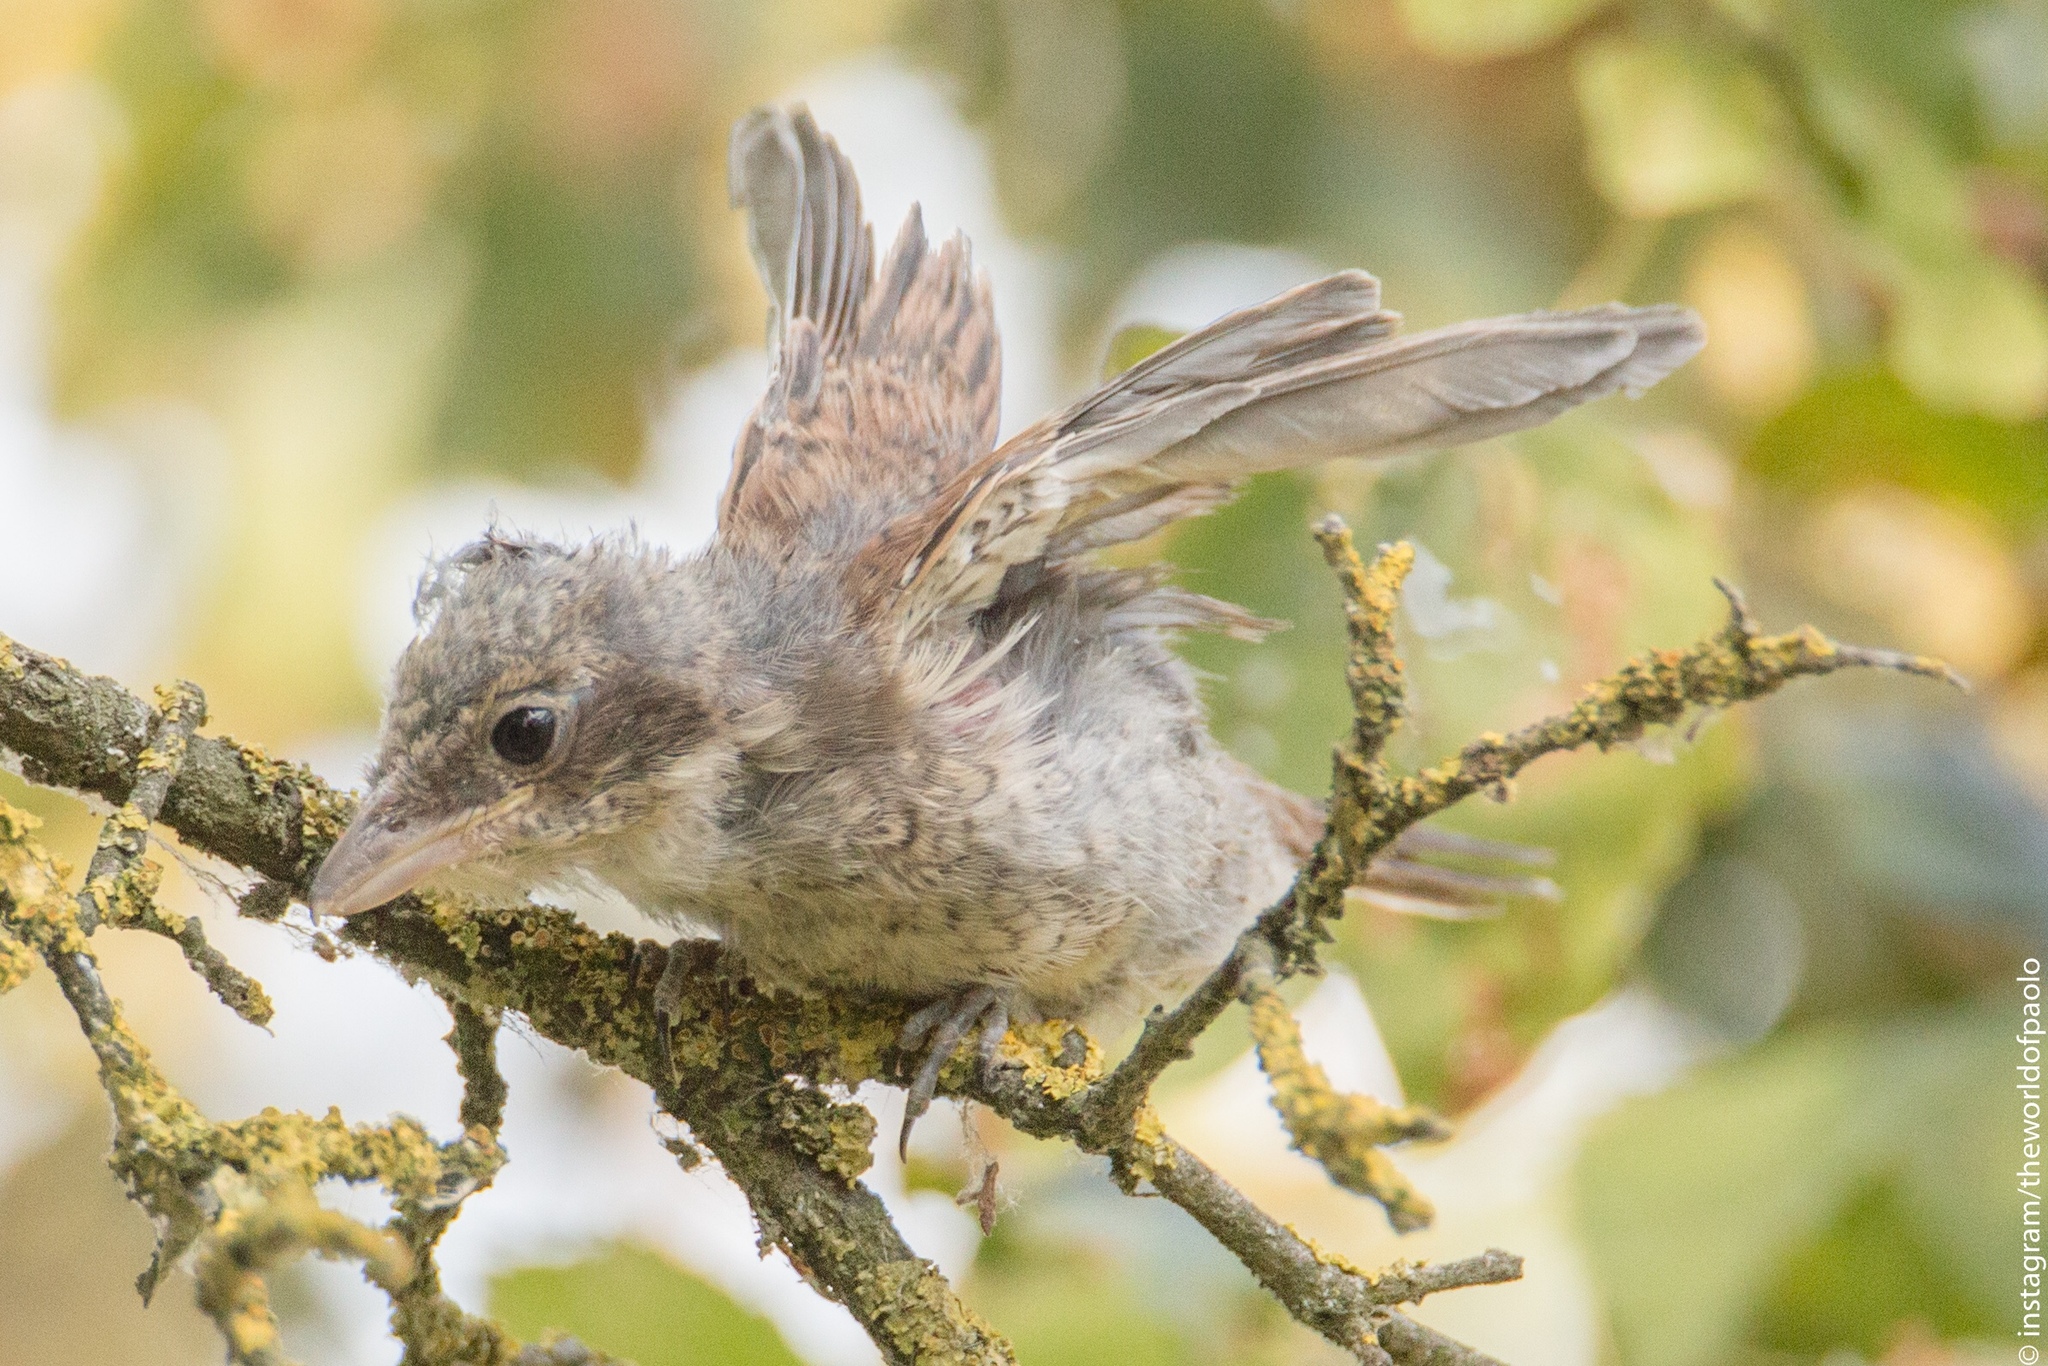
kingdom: Animalia
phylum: Chordata
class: Aves
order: Passeriformes
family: Laniidae
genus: Lanius
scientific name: Lanius collurio
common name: Red-backed shrike
